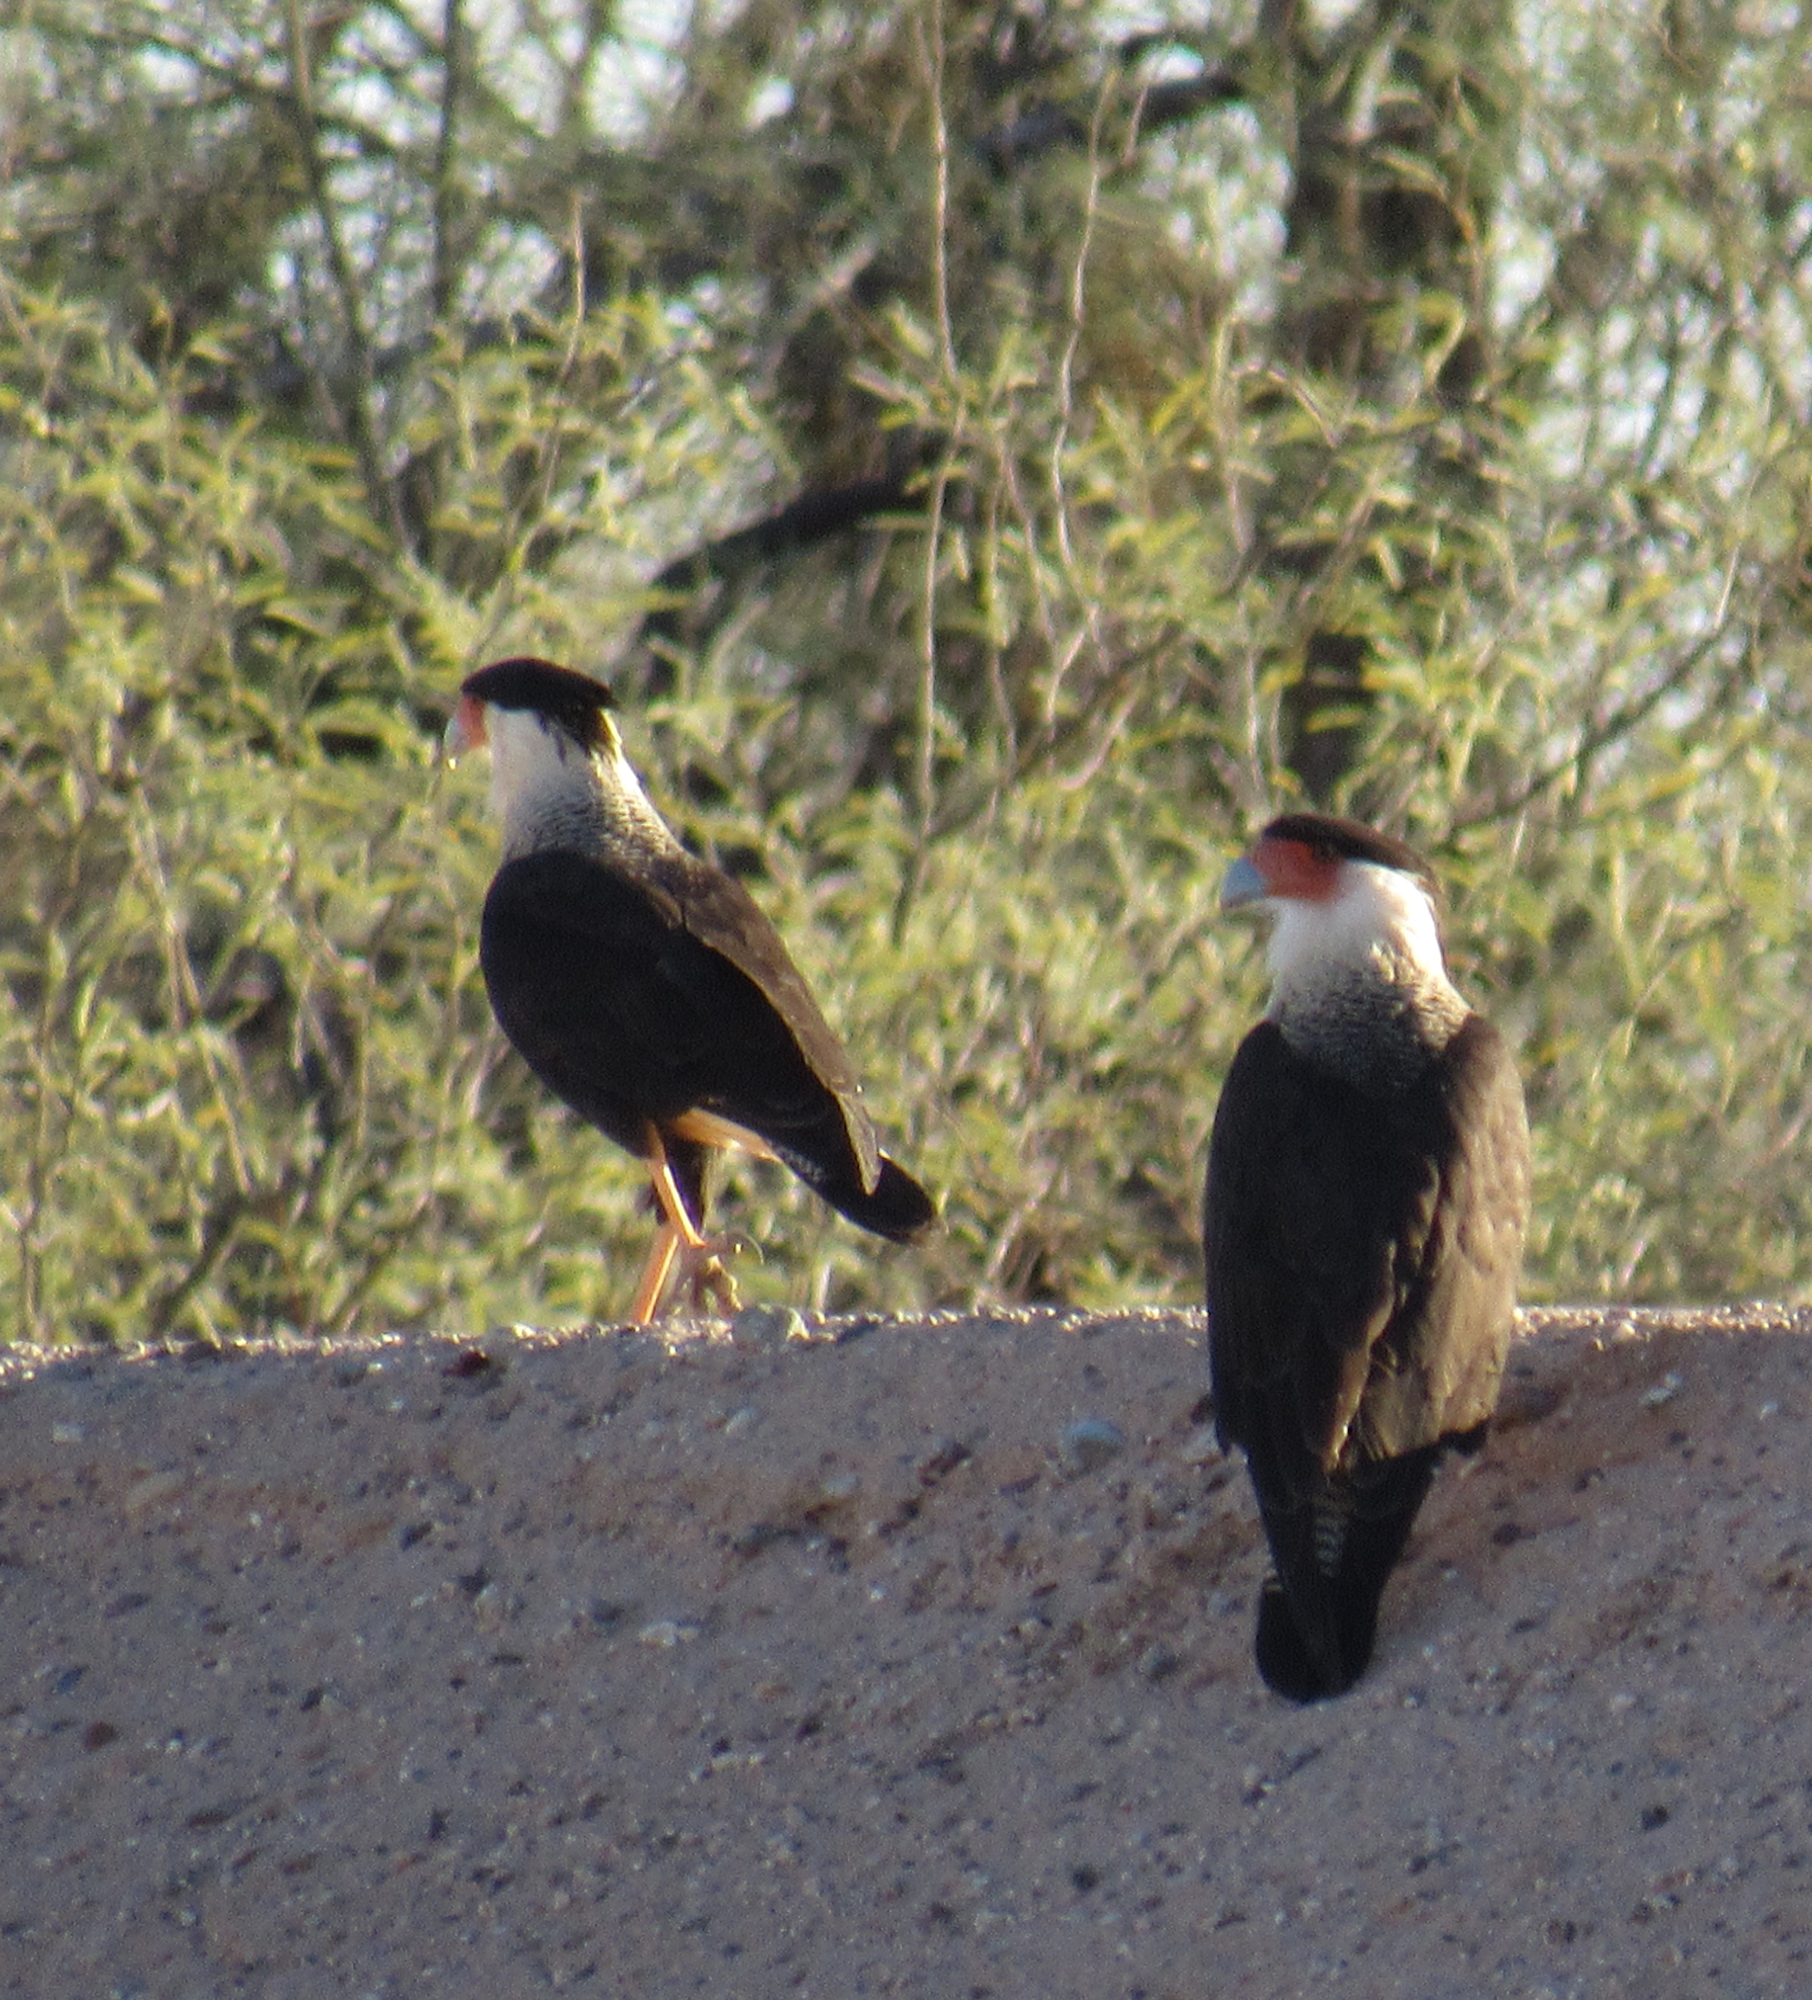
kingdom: Animalia
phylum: Chordata
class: Aves
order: Falconiformes
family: Falconidae
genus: Caracara
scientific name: Caracara plancus
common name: Southern caracara
